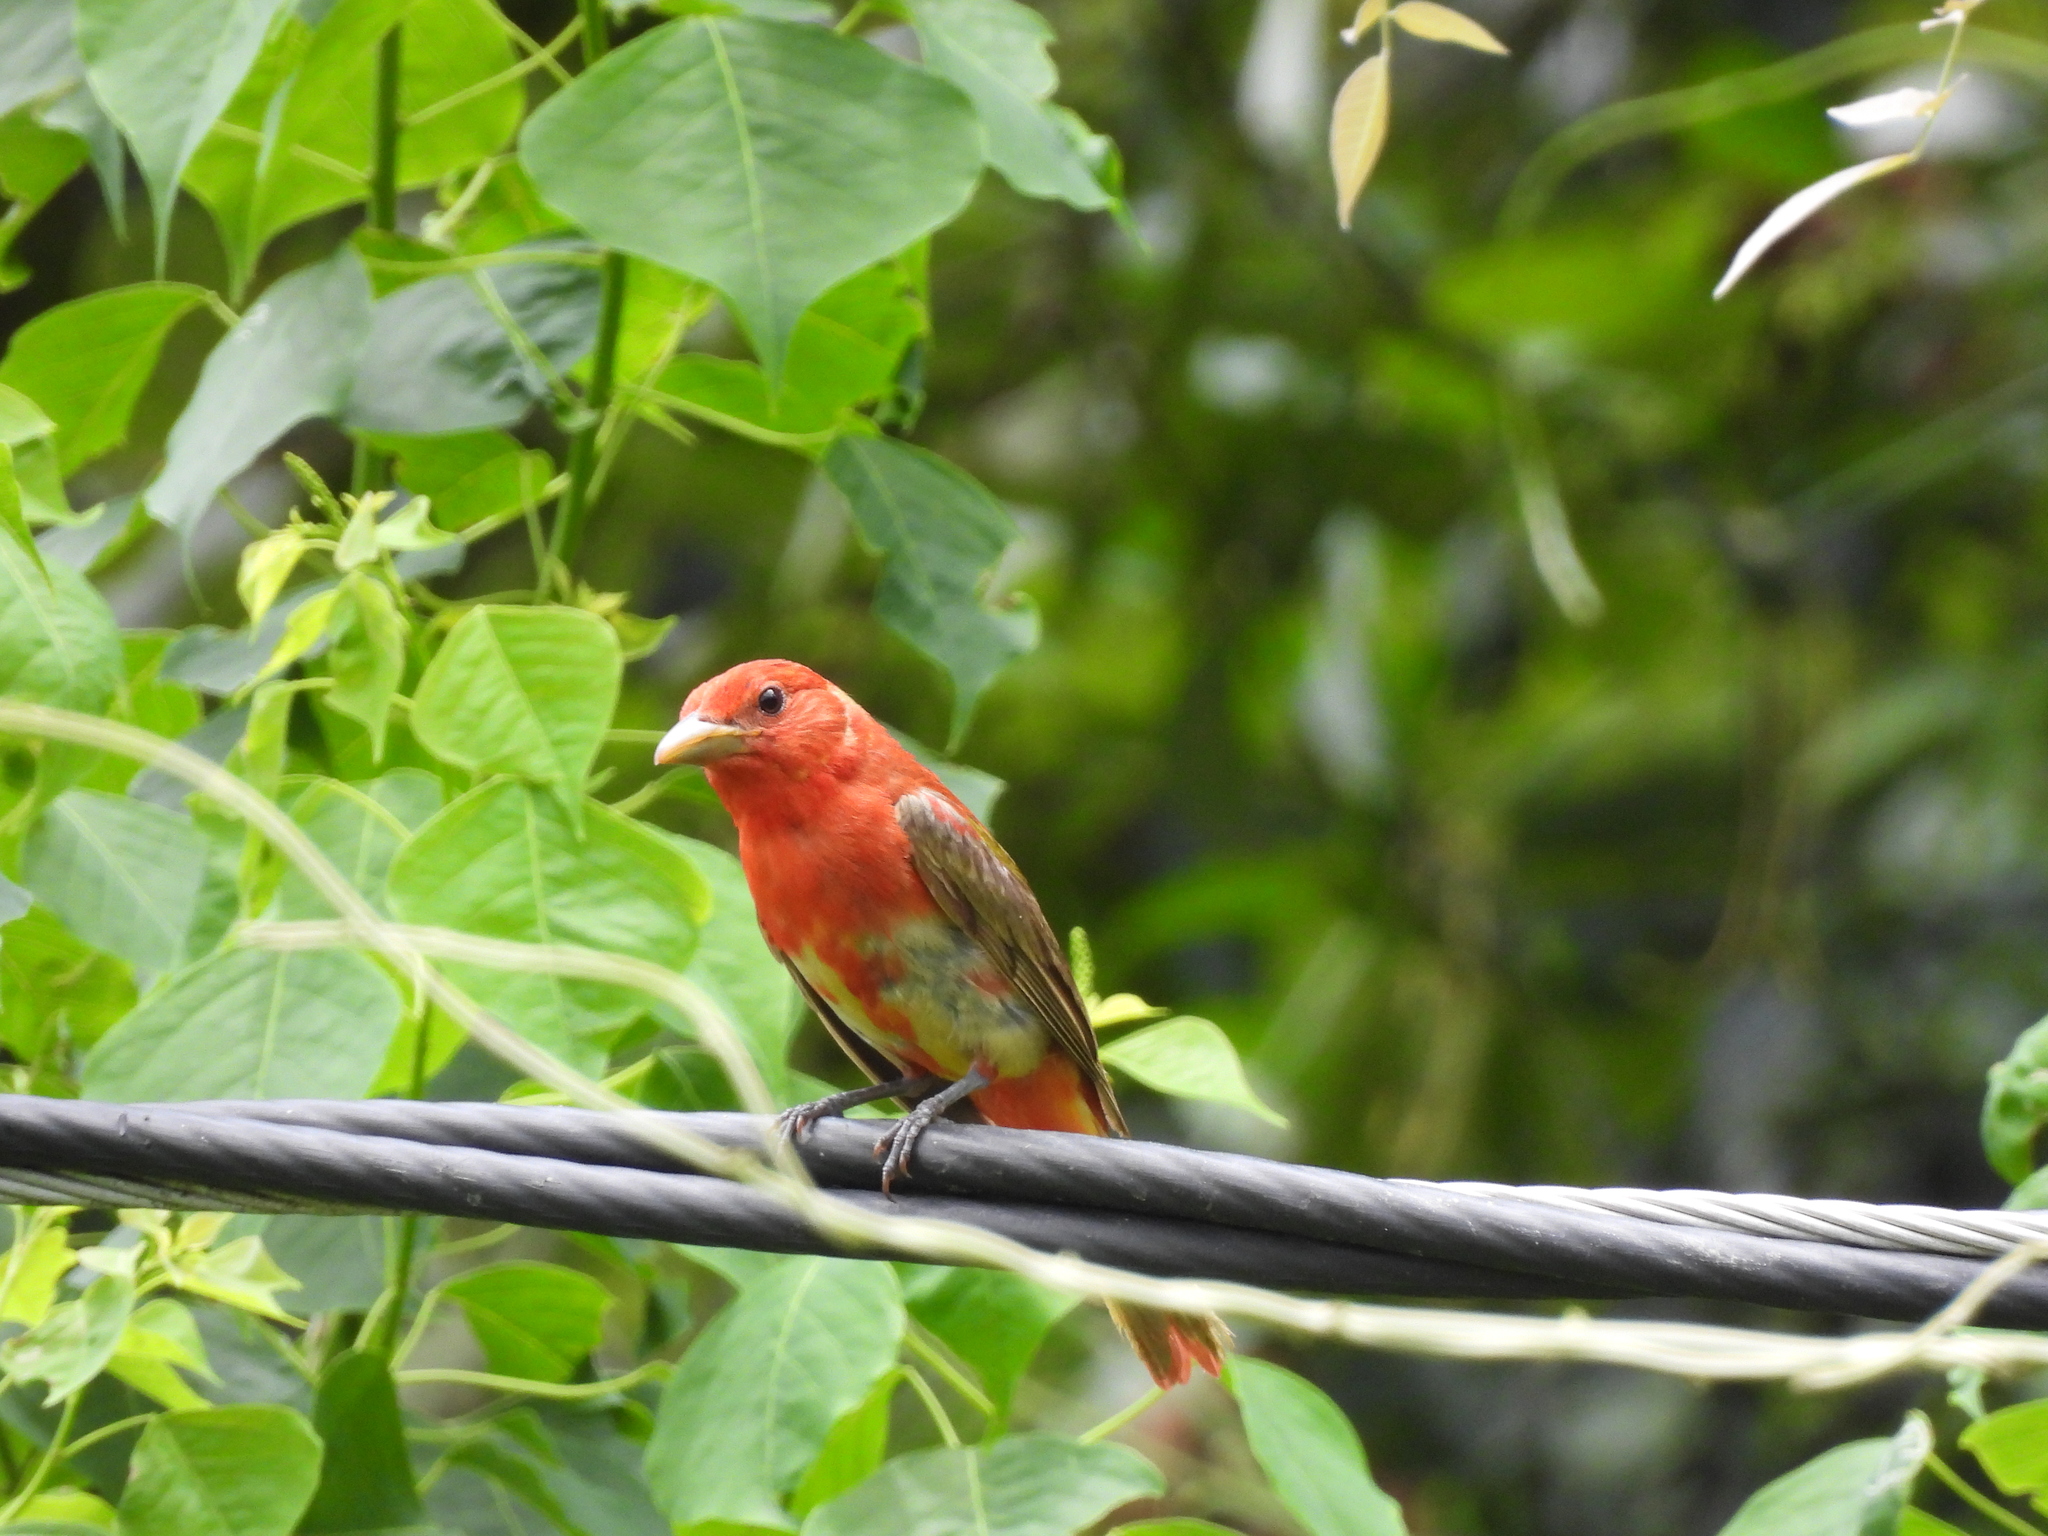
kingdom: Animalia
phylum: Chordata
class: Aves
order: Passeriformes
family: Cardinalidae
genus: Piranga
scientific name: Piranga rubra
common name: Summer tanager
